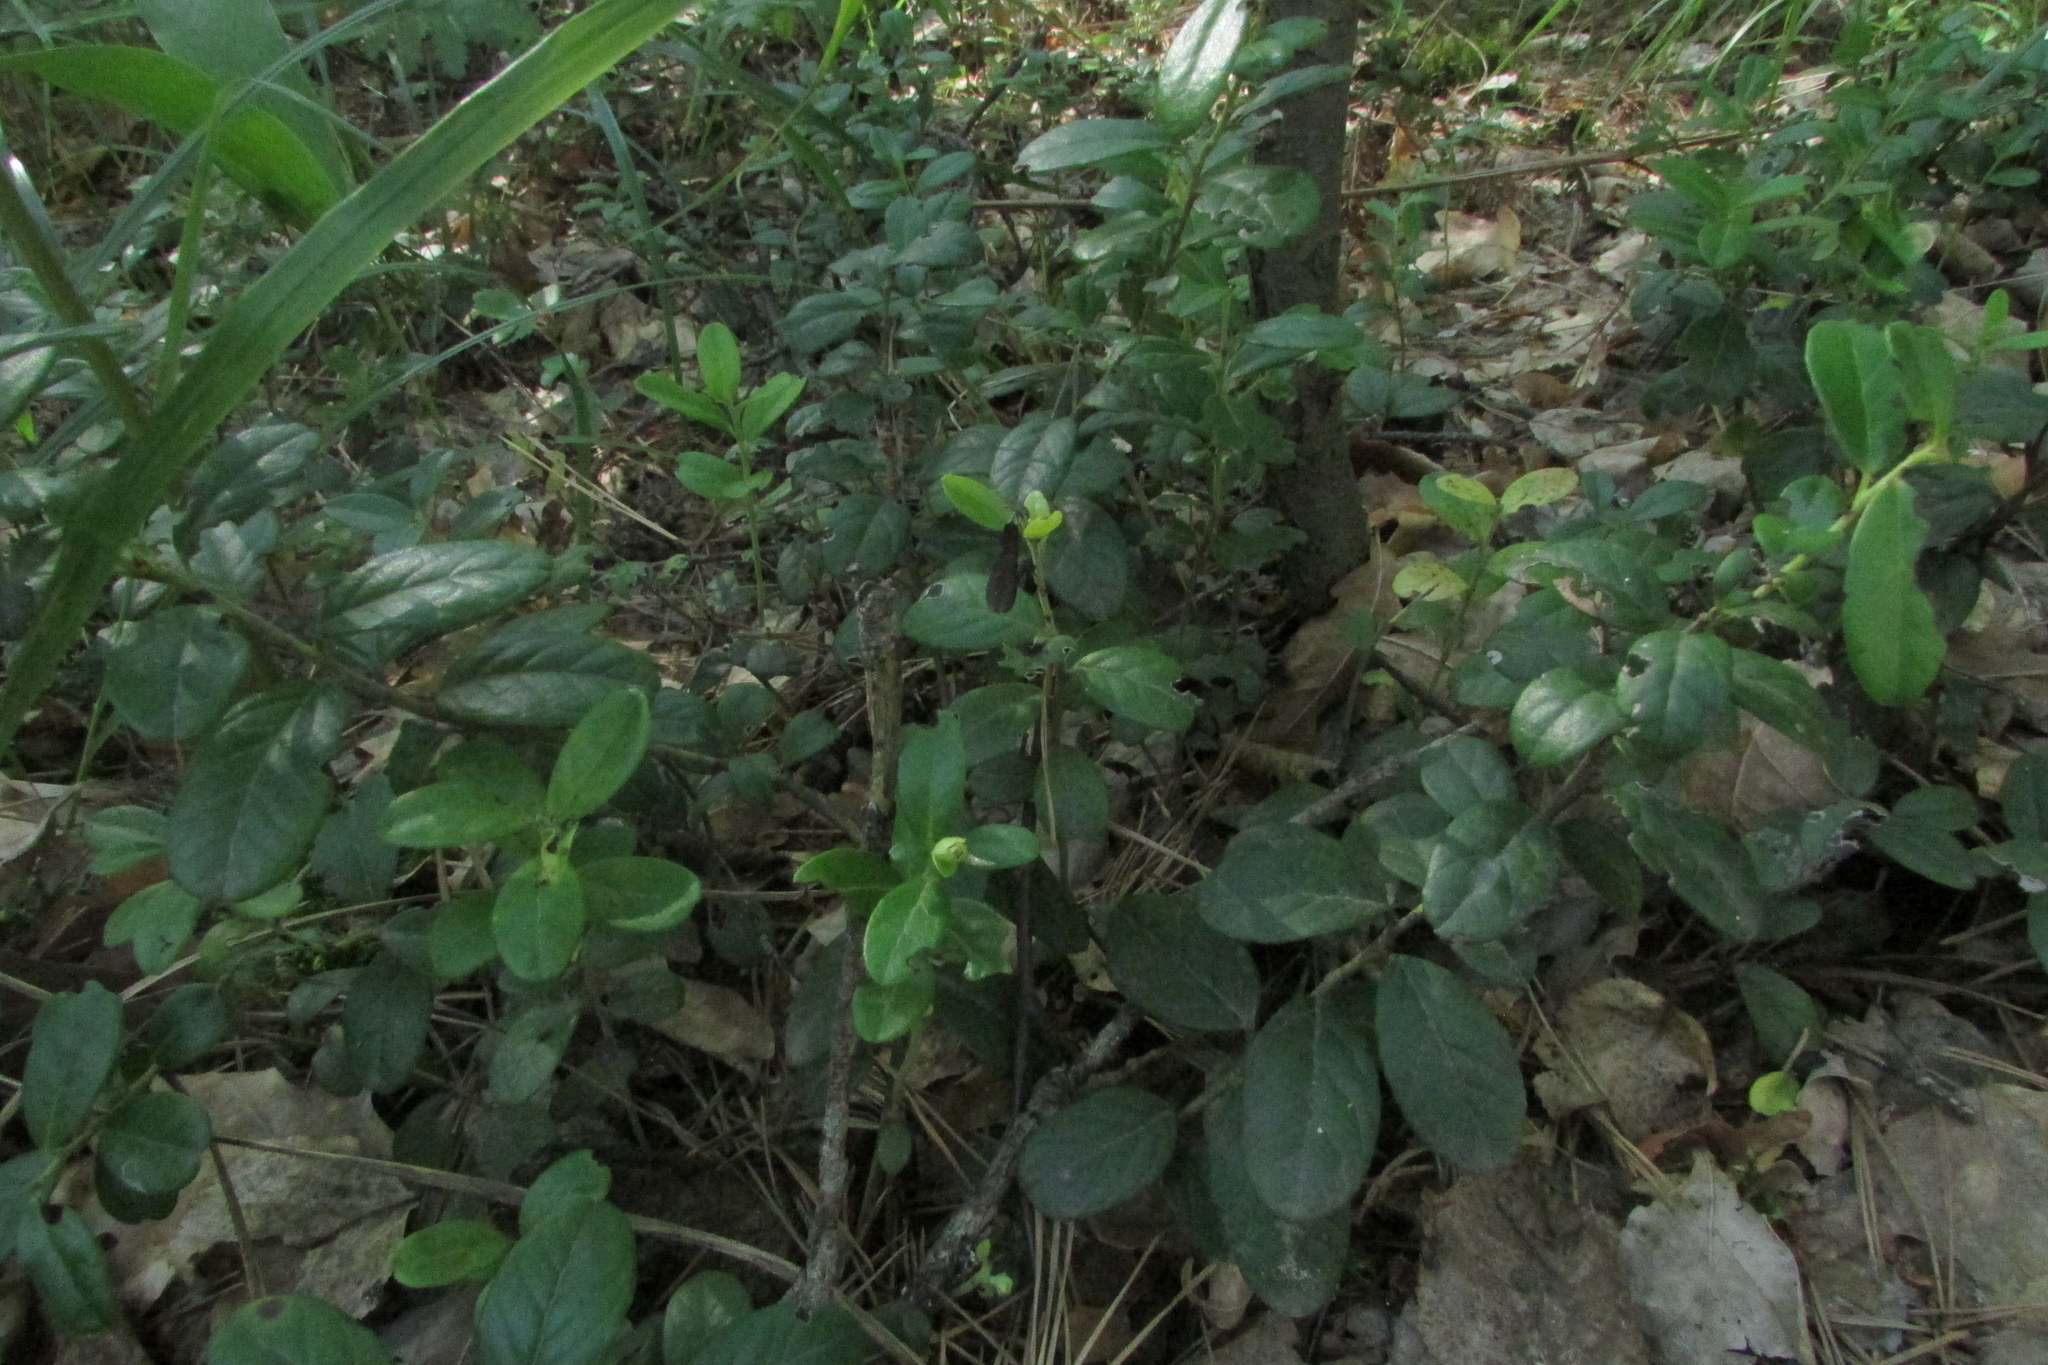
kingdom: Plantae
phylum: Tracheophyta
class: Magnoliopsida
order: Ericales
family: Ericaceae
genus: Vaccinium
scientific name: Vaccinium vitis-idaea
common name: Cowberry
